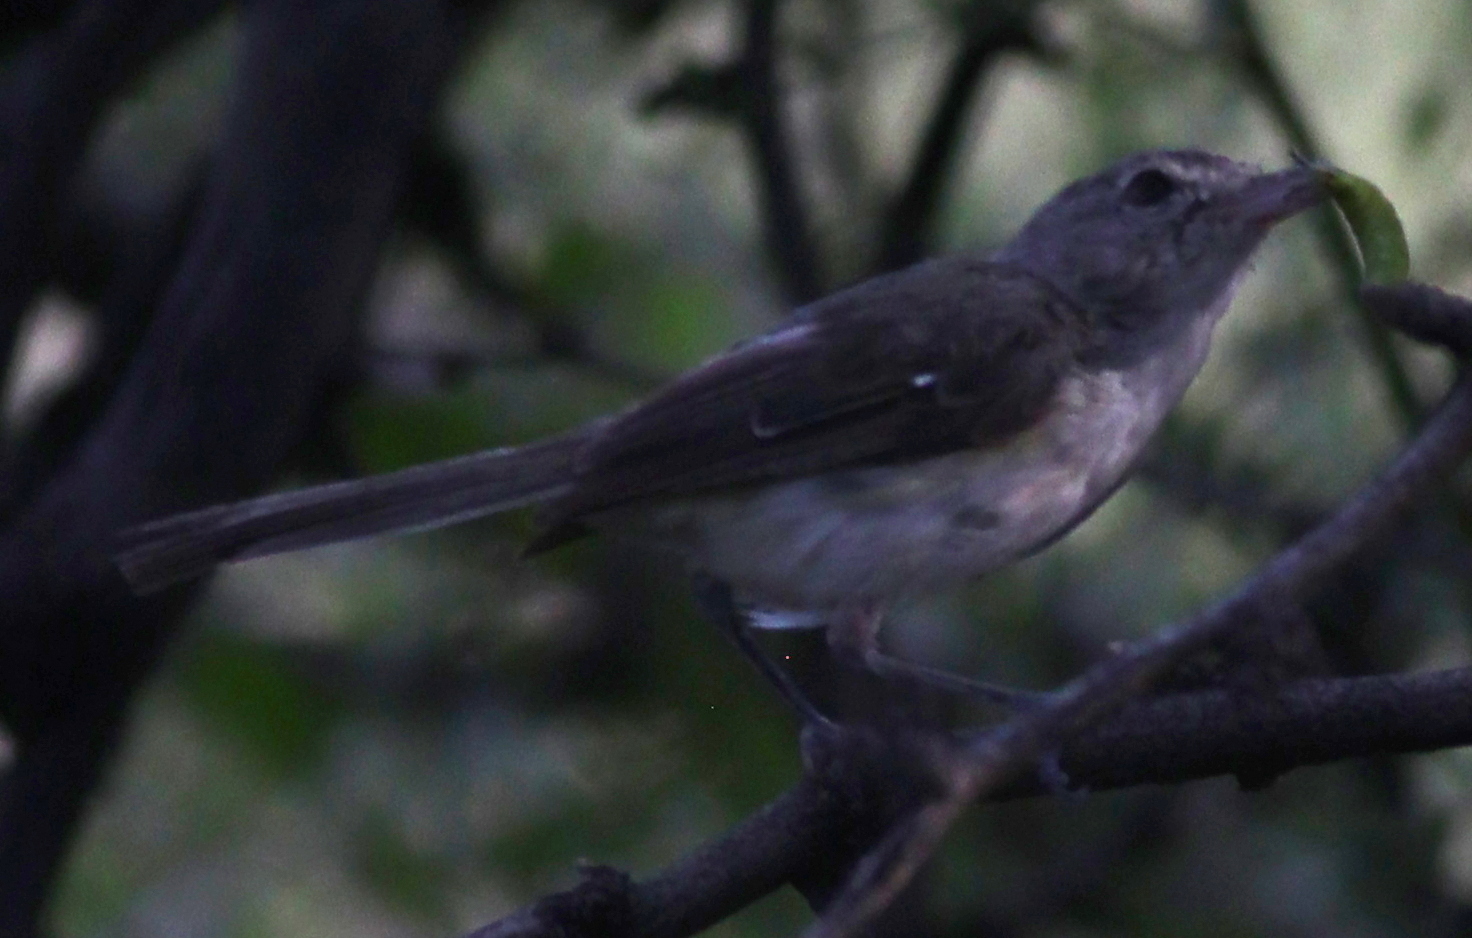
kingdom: Animalia
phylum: Chordata
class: Aves
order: Passeriformes
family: Vireonidae
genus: Vireo
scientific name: Vireo bellii
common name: Bell's vireo
